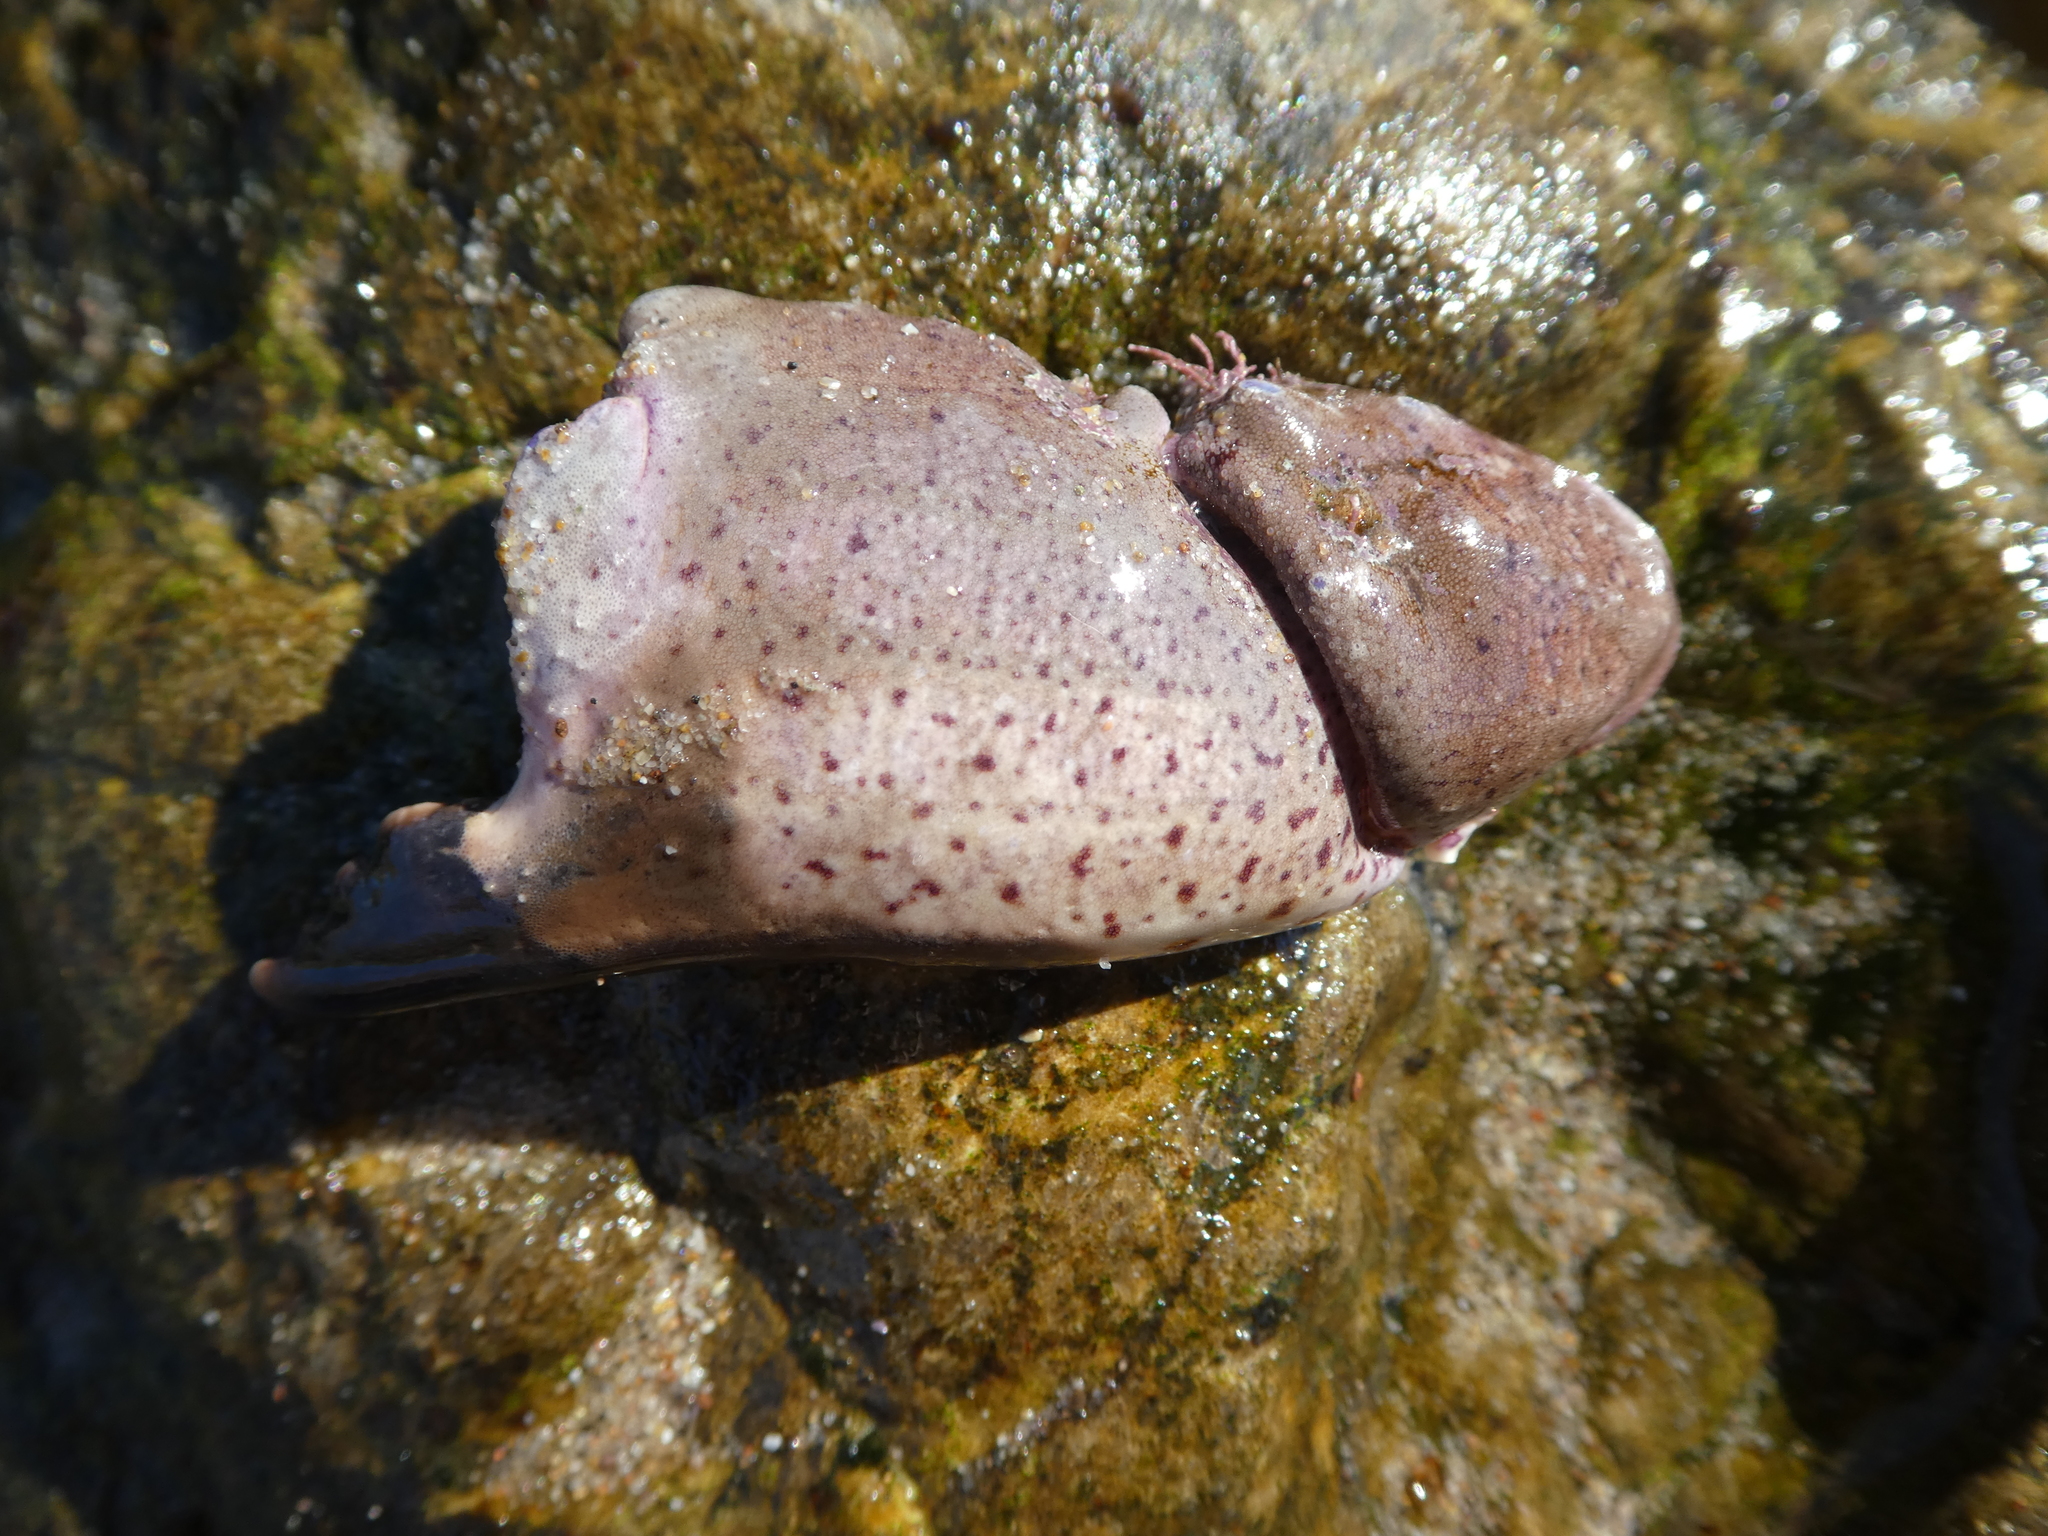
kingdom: Animalia
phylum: Arthropoda
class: Malacostraca
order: Decapoda
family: Cancridae
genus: Romaleon
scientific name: Romaleon antennarium
